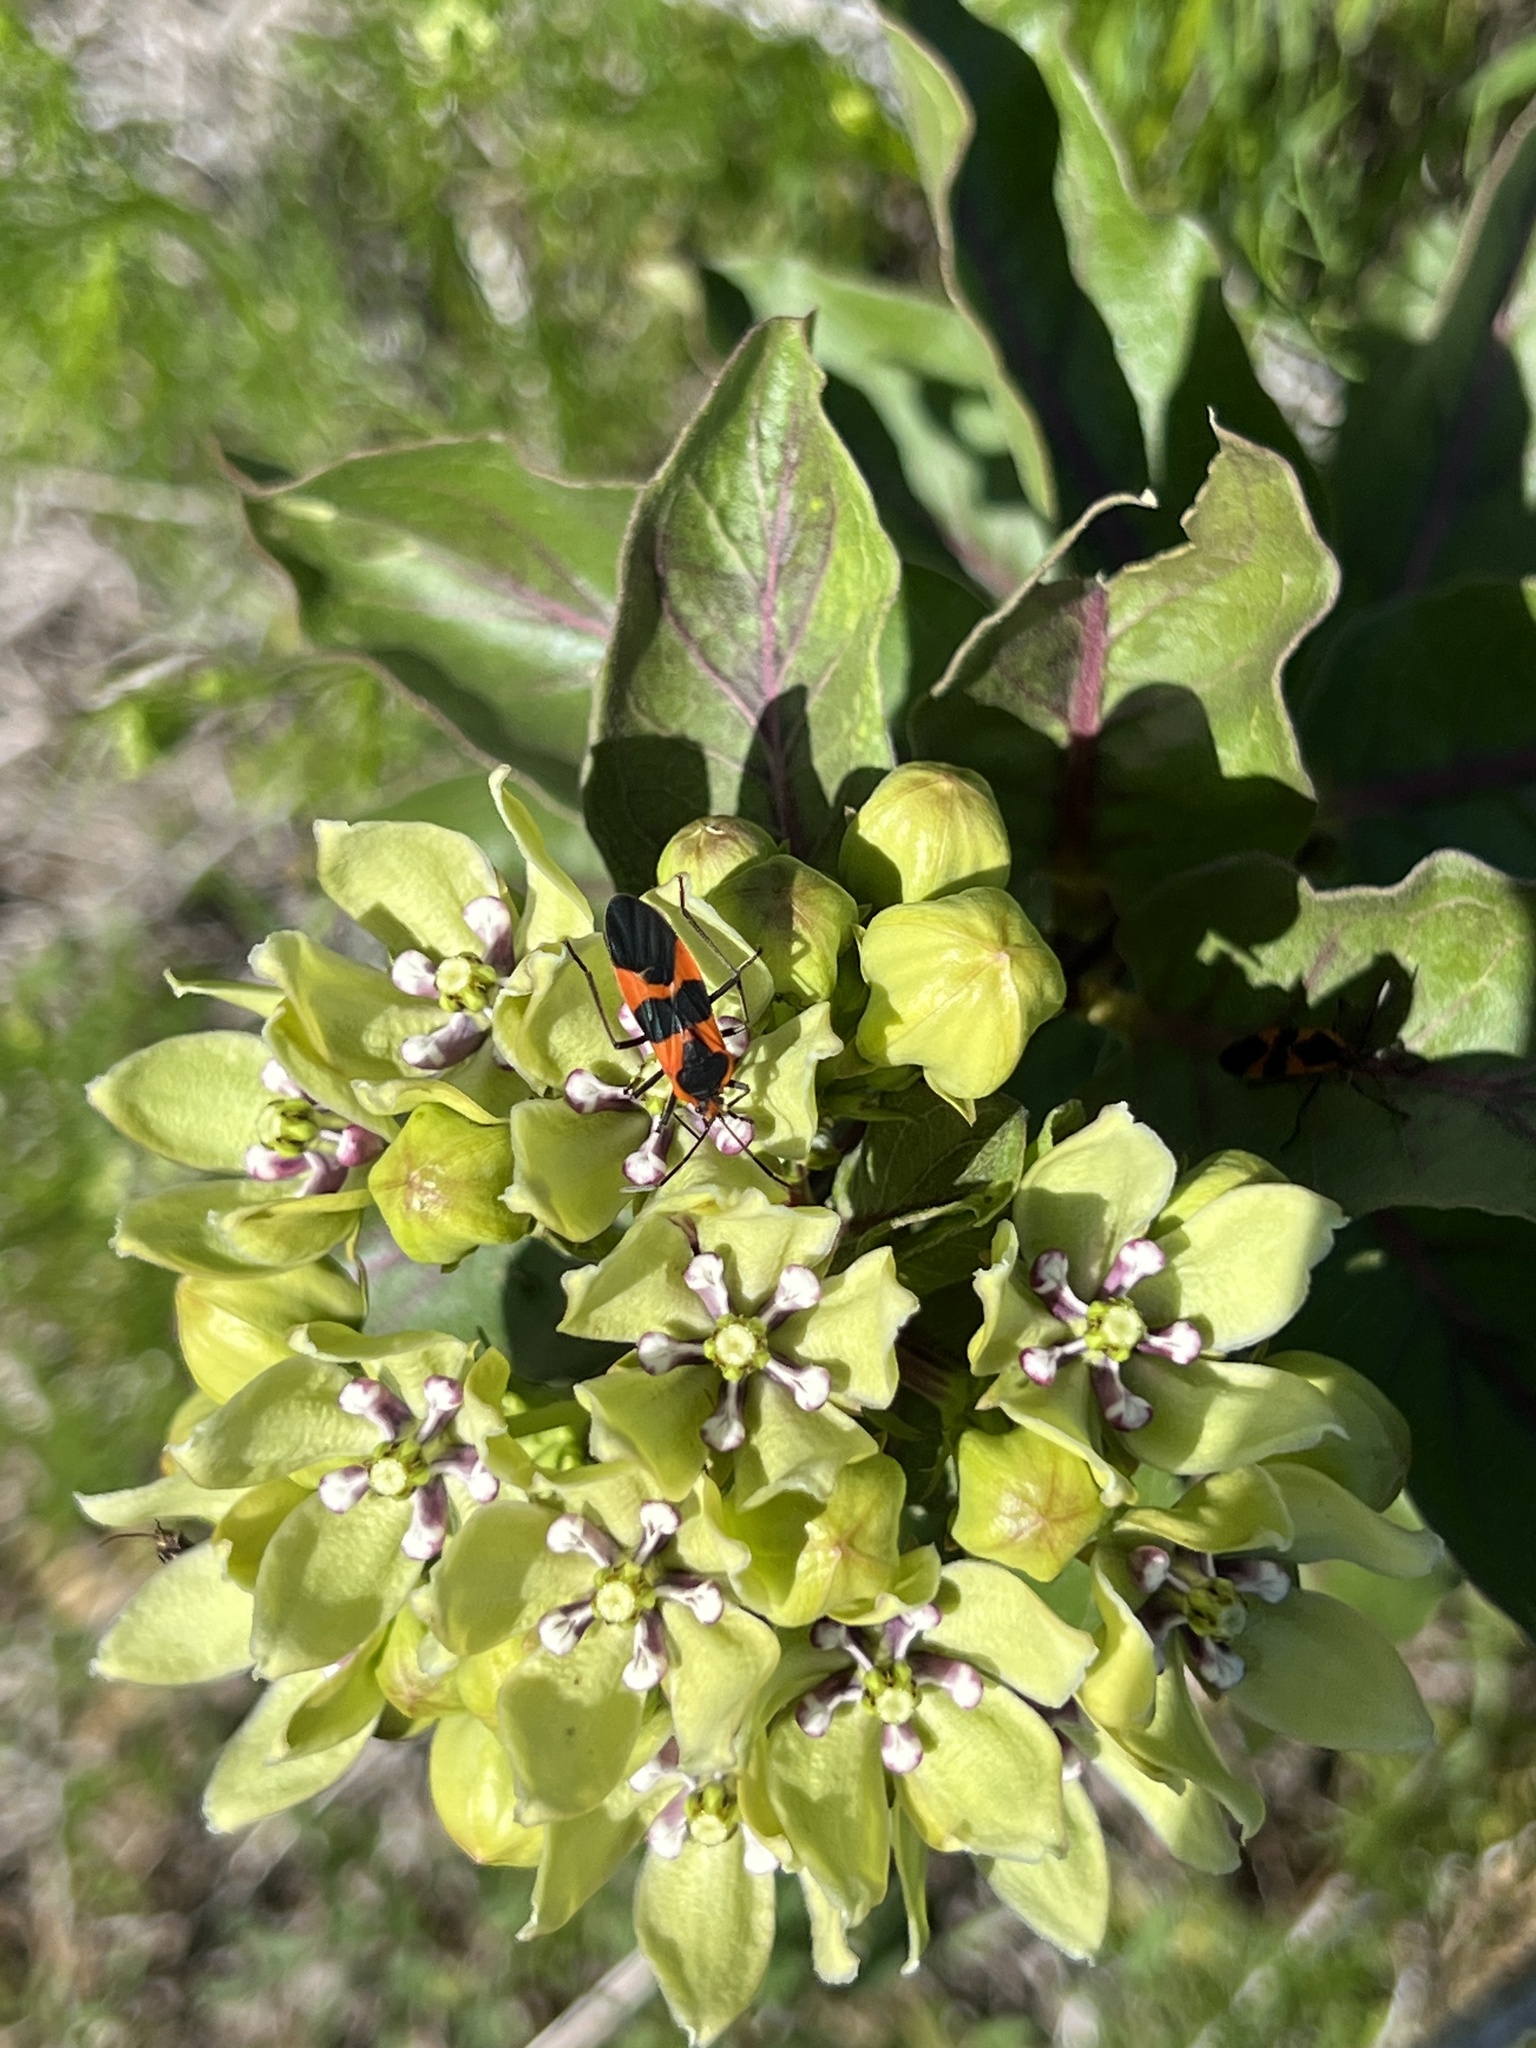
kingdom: Animalia
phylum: Arthropoda
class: Insecta
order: Hemiptera
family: Lygaeidae
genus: Oncopeltus
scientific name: Oncopeltus fasciatus
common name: Large milkweed bug
